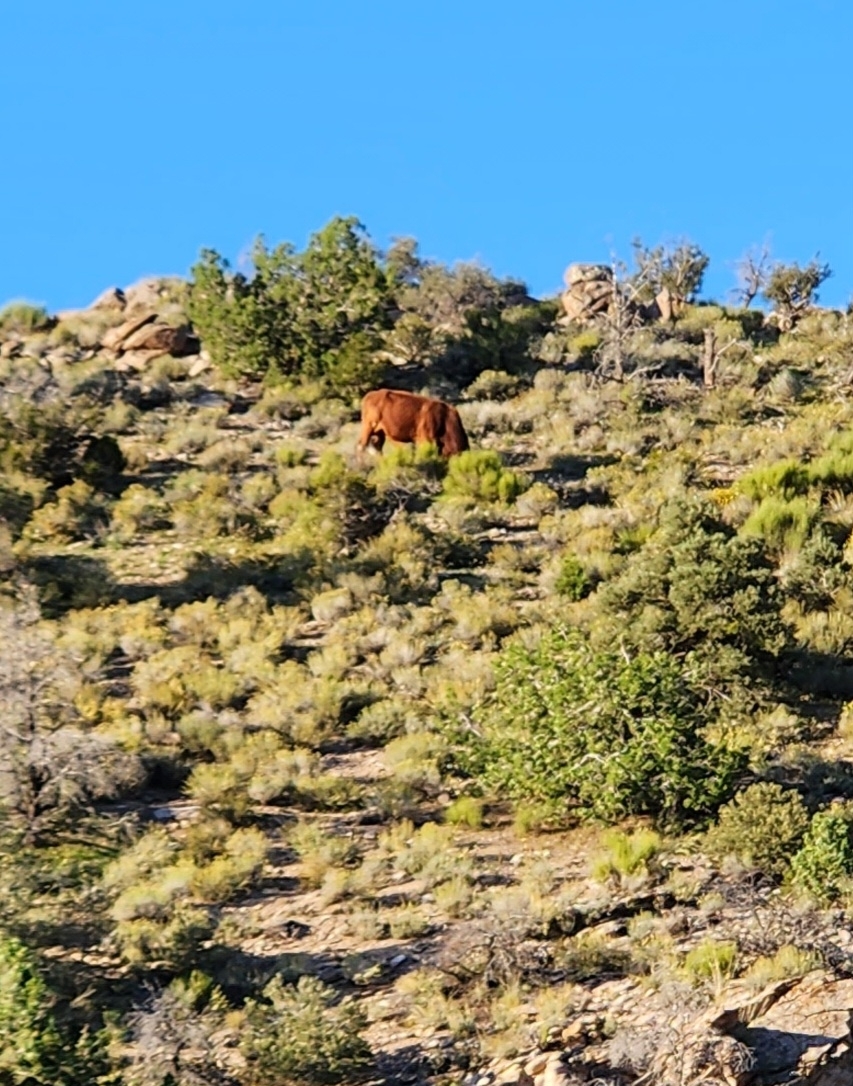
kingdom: Animalia
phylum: Chordata
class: Mammalia
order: Artiodactyla
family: Bovidae
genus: Bos
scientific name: Bos taurus
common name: Domesticated cattle
